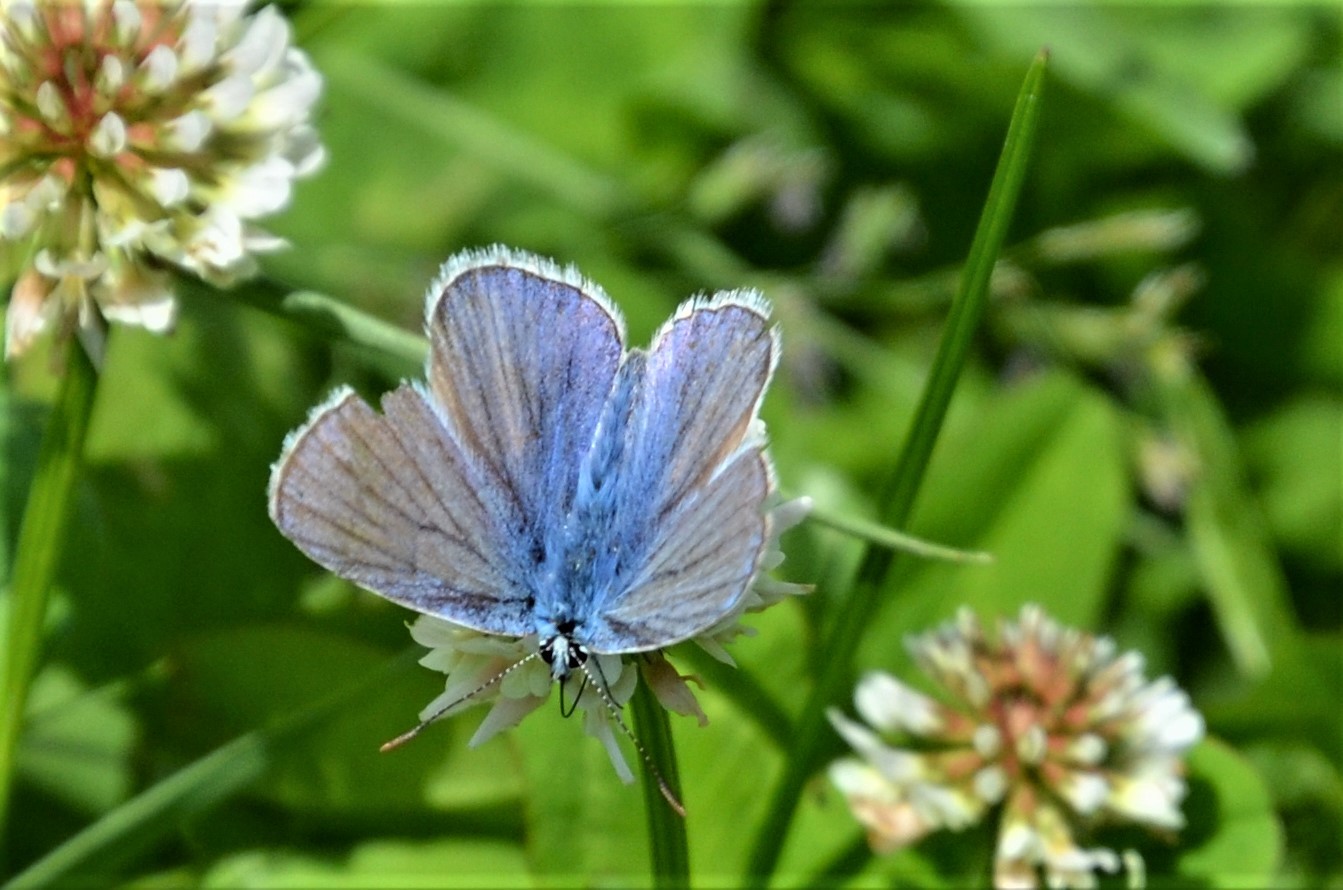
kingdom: Animalia
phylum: Arthropoda
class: Insecta
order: Lepidoptera
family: Lycaenidae
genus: Polyommatus
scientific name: Polyommatus icarus
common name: Common blue
